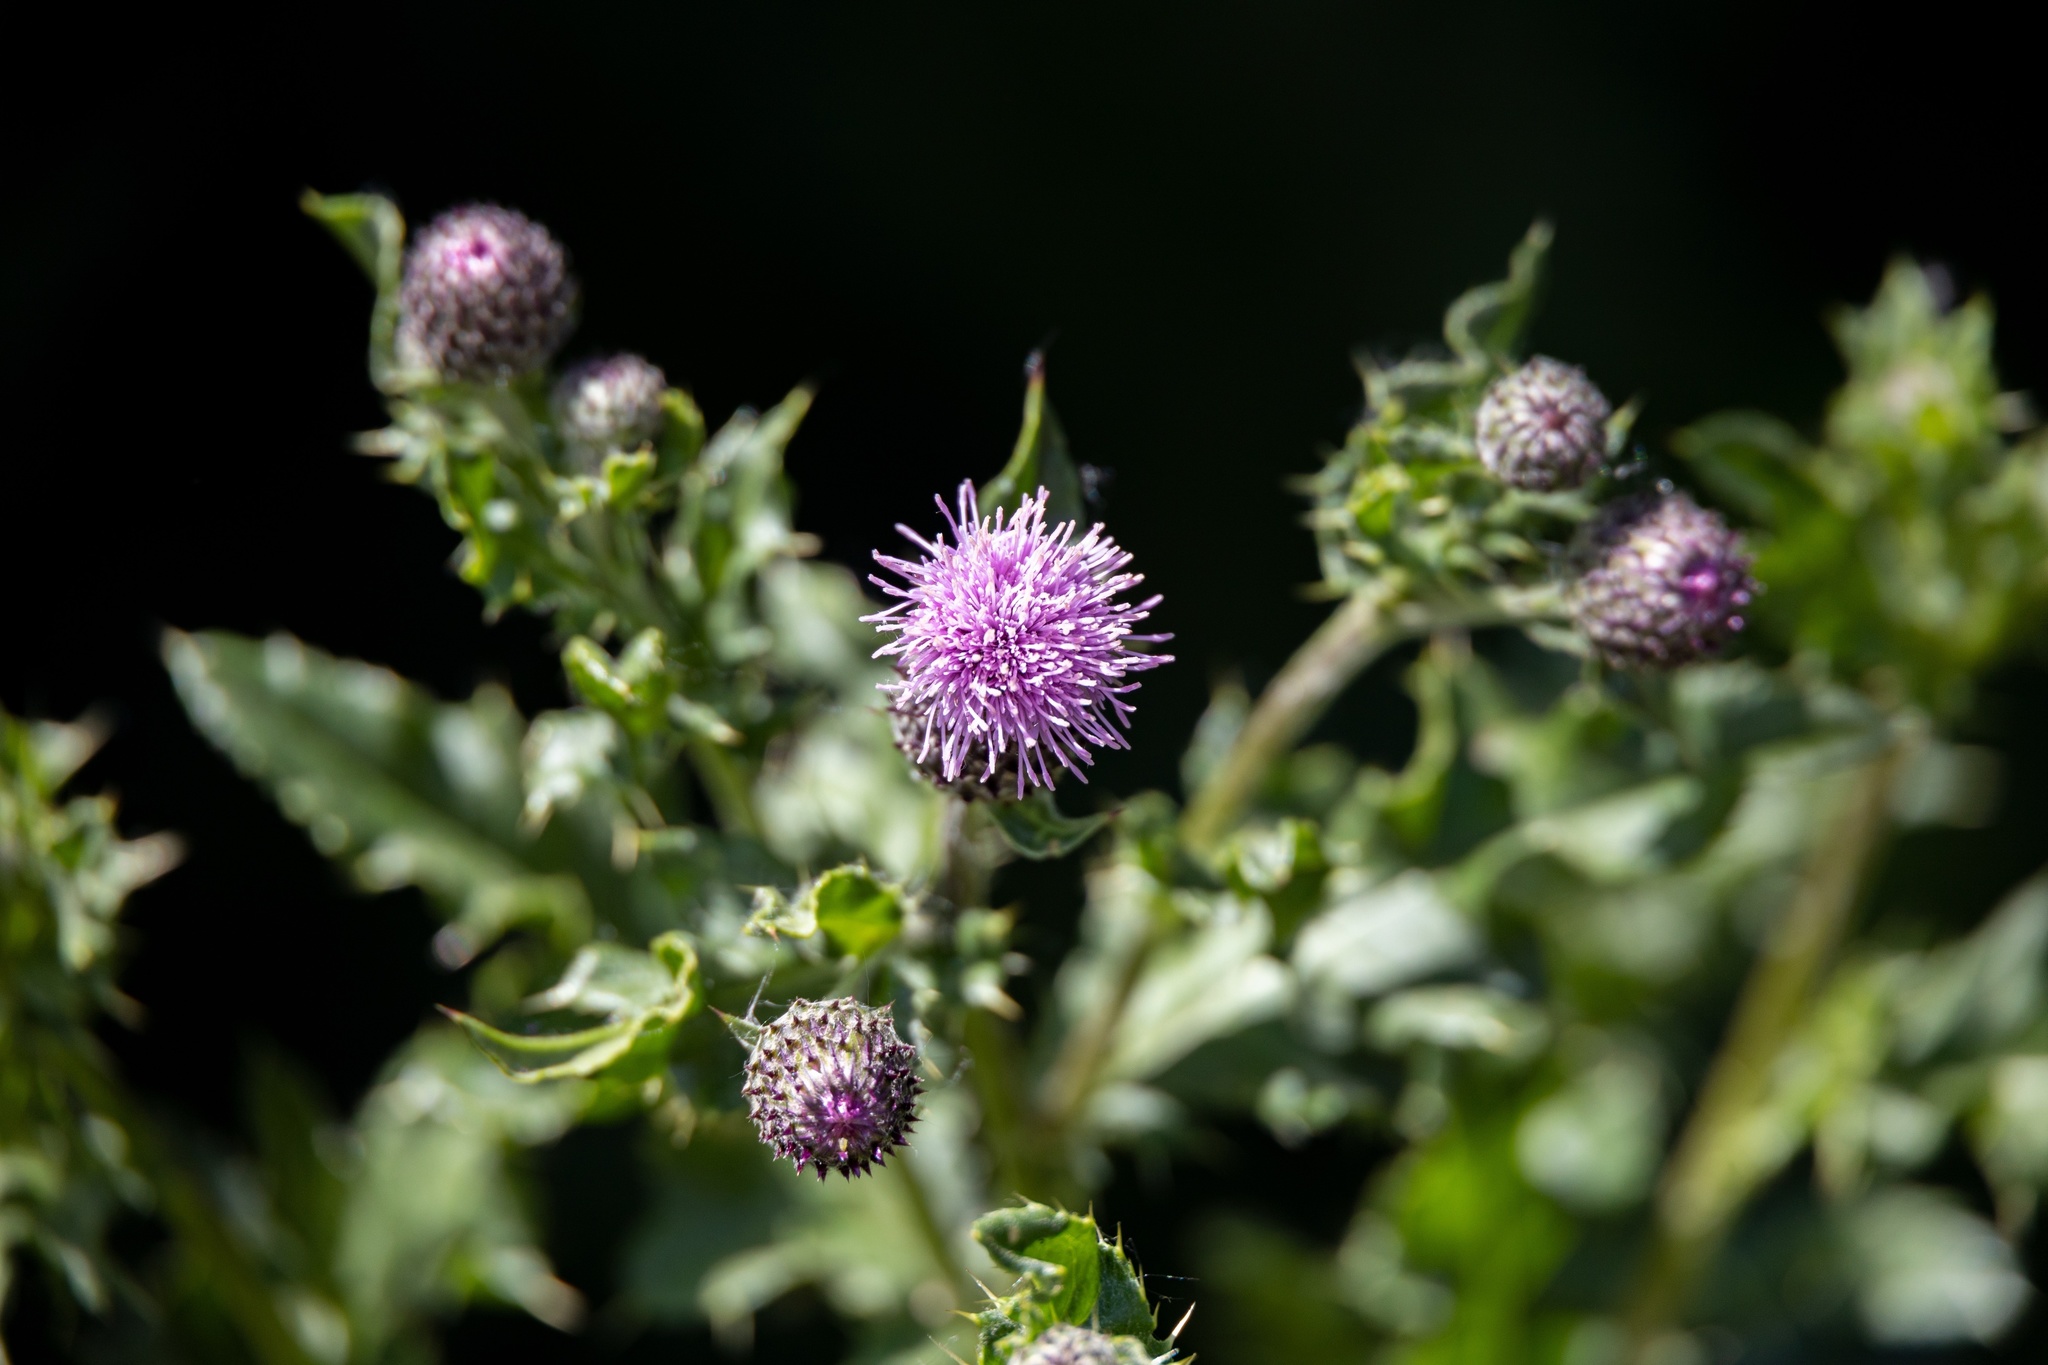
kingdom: Plantae
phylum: Tracheophyta
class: Magnoliopsida
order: Asterales
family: Asteraceae
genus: Cirsium
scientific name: Cirsium arvense
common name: Creeping thistle
